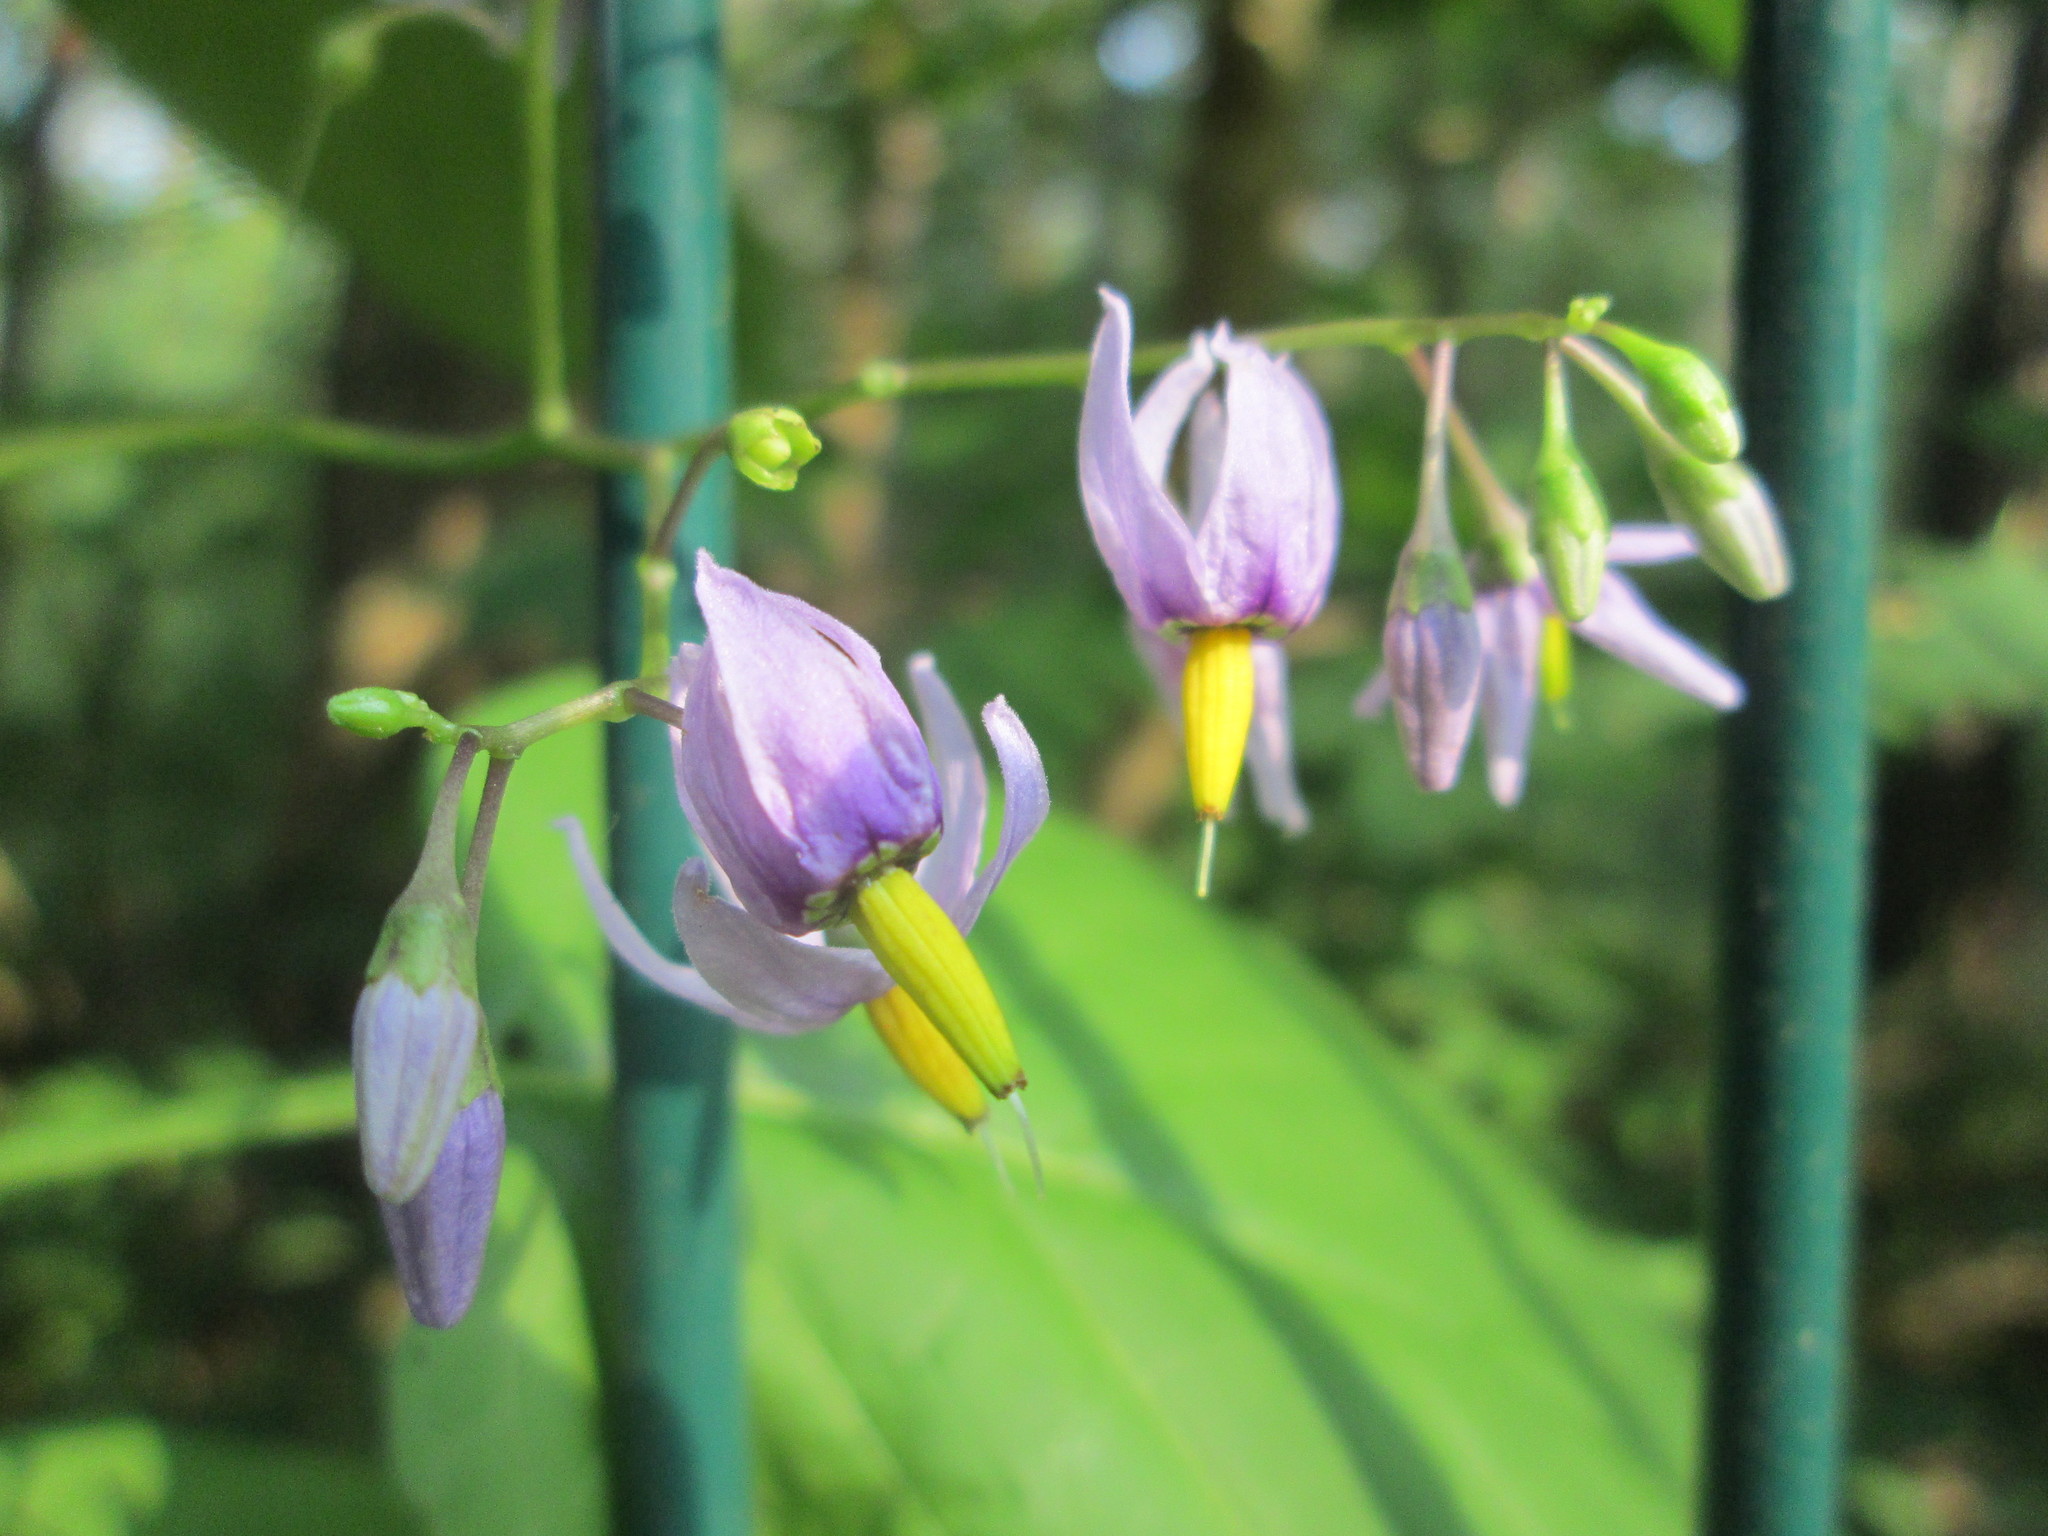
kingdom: Plantae
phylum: Tracheophyta
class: Magnoliopsida
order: Solanales
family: Solanaceae
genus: Solanum
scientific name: Solanum dulcamara
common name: Climbing nightshade
